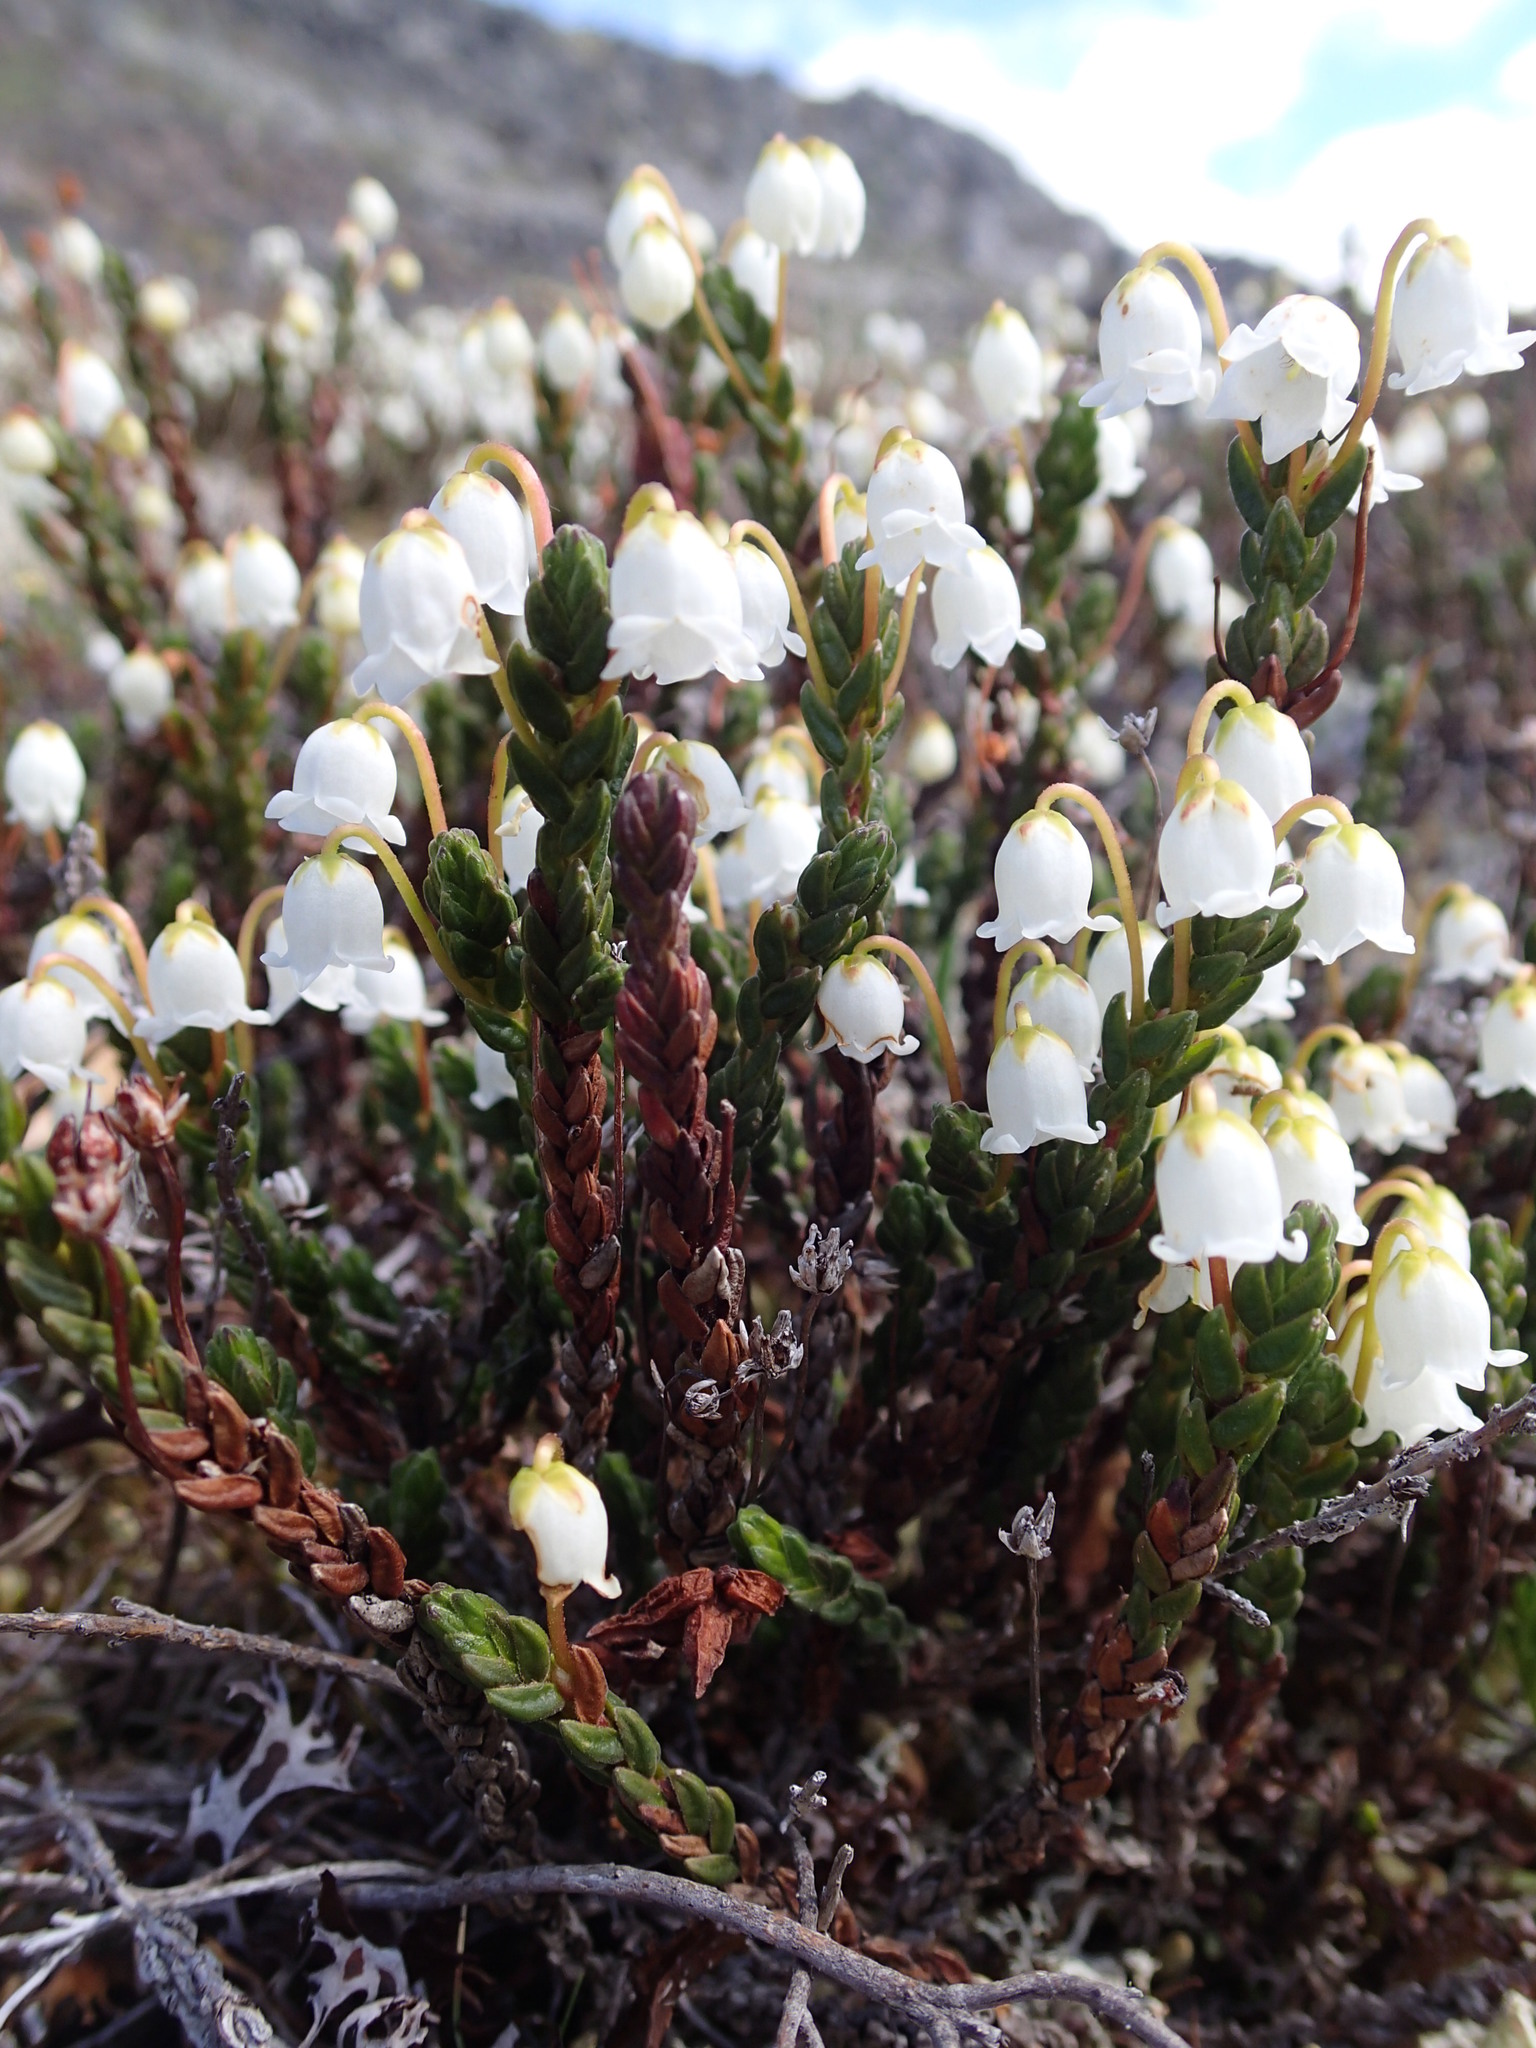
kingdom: Plantae
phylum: Tracheophyta
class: Magnoliopsida
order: Ericales
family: Ericaceae
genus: Cassiope
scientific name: Cassiope tetragona
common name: Arctic bell heather
